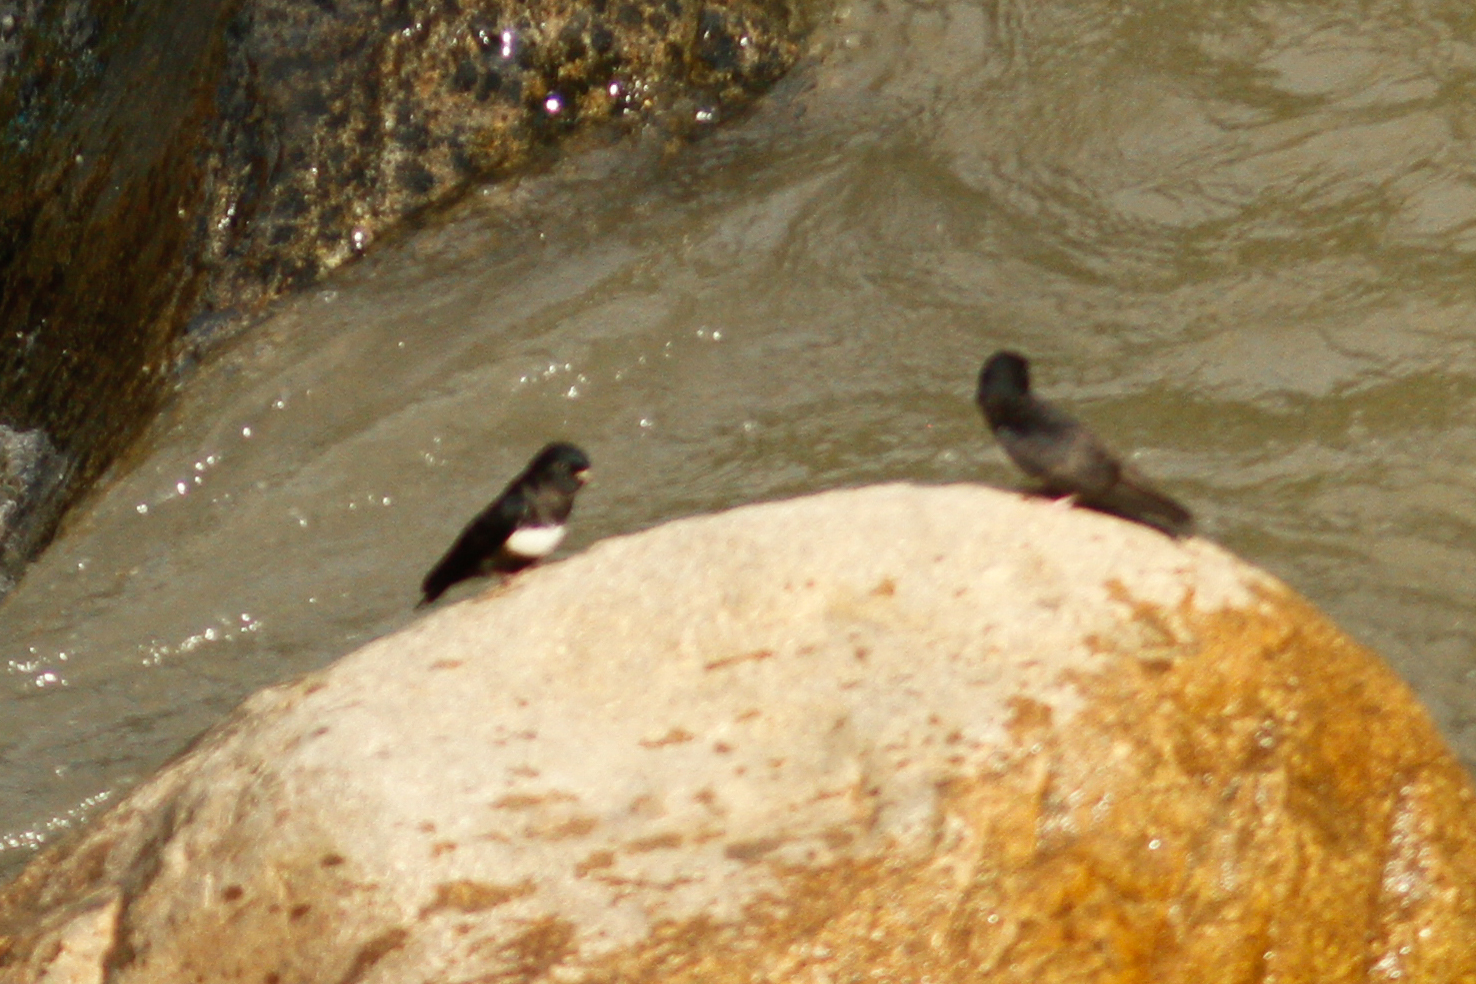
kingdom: Animalia
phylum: Chordata
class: Aves
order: Passeriformes
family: Hirundinidae
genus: Atticora
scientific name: Atticora fasciata
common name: White-banded swallow
